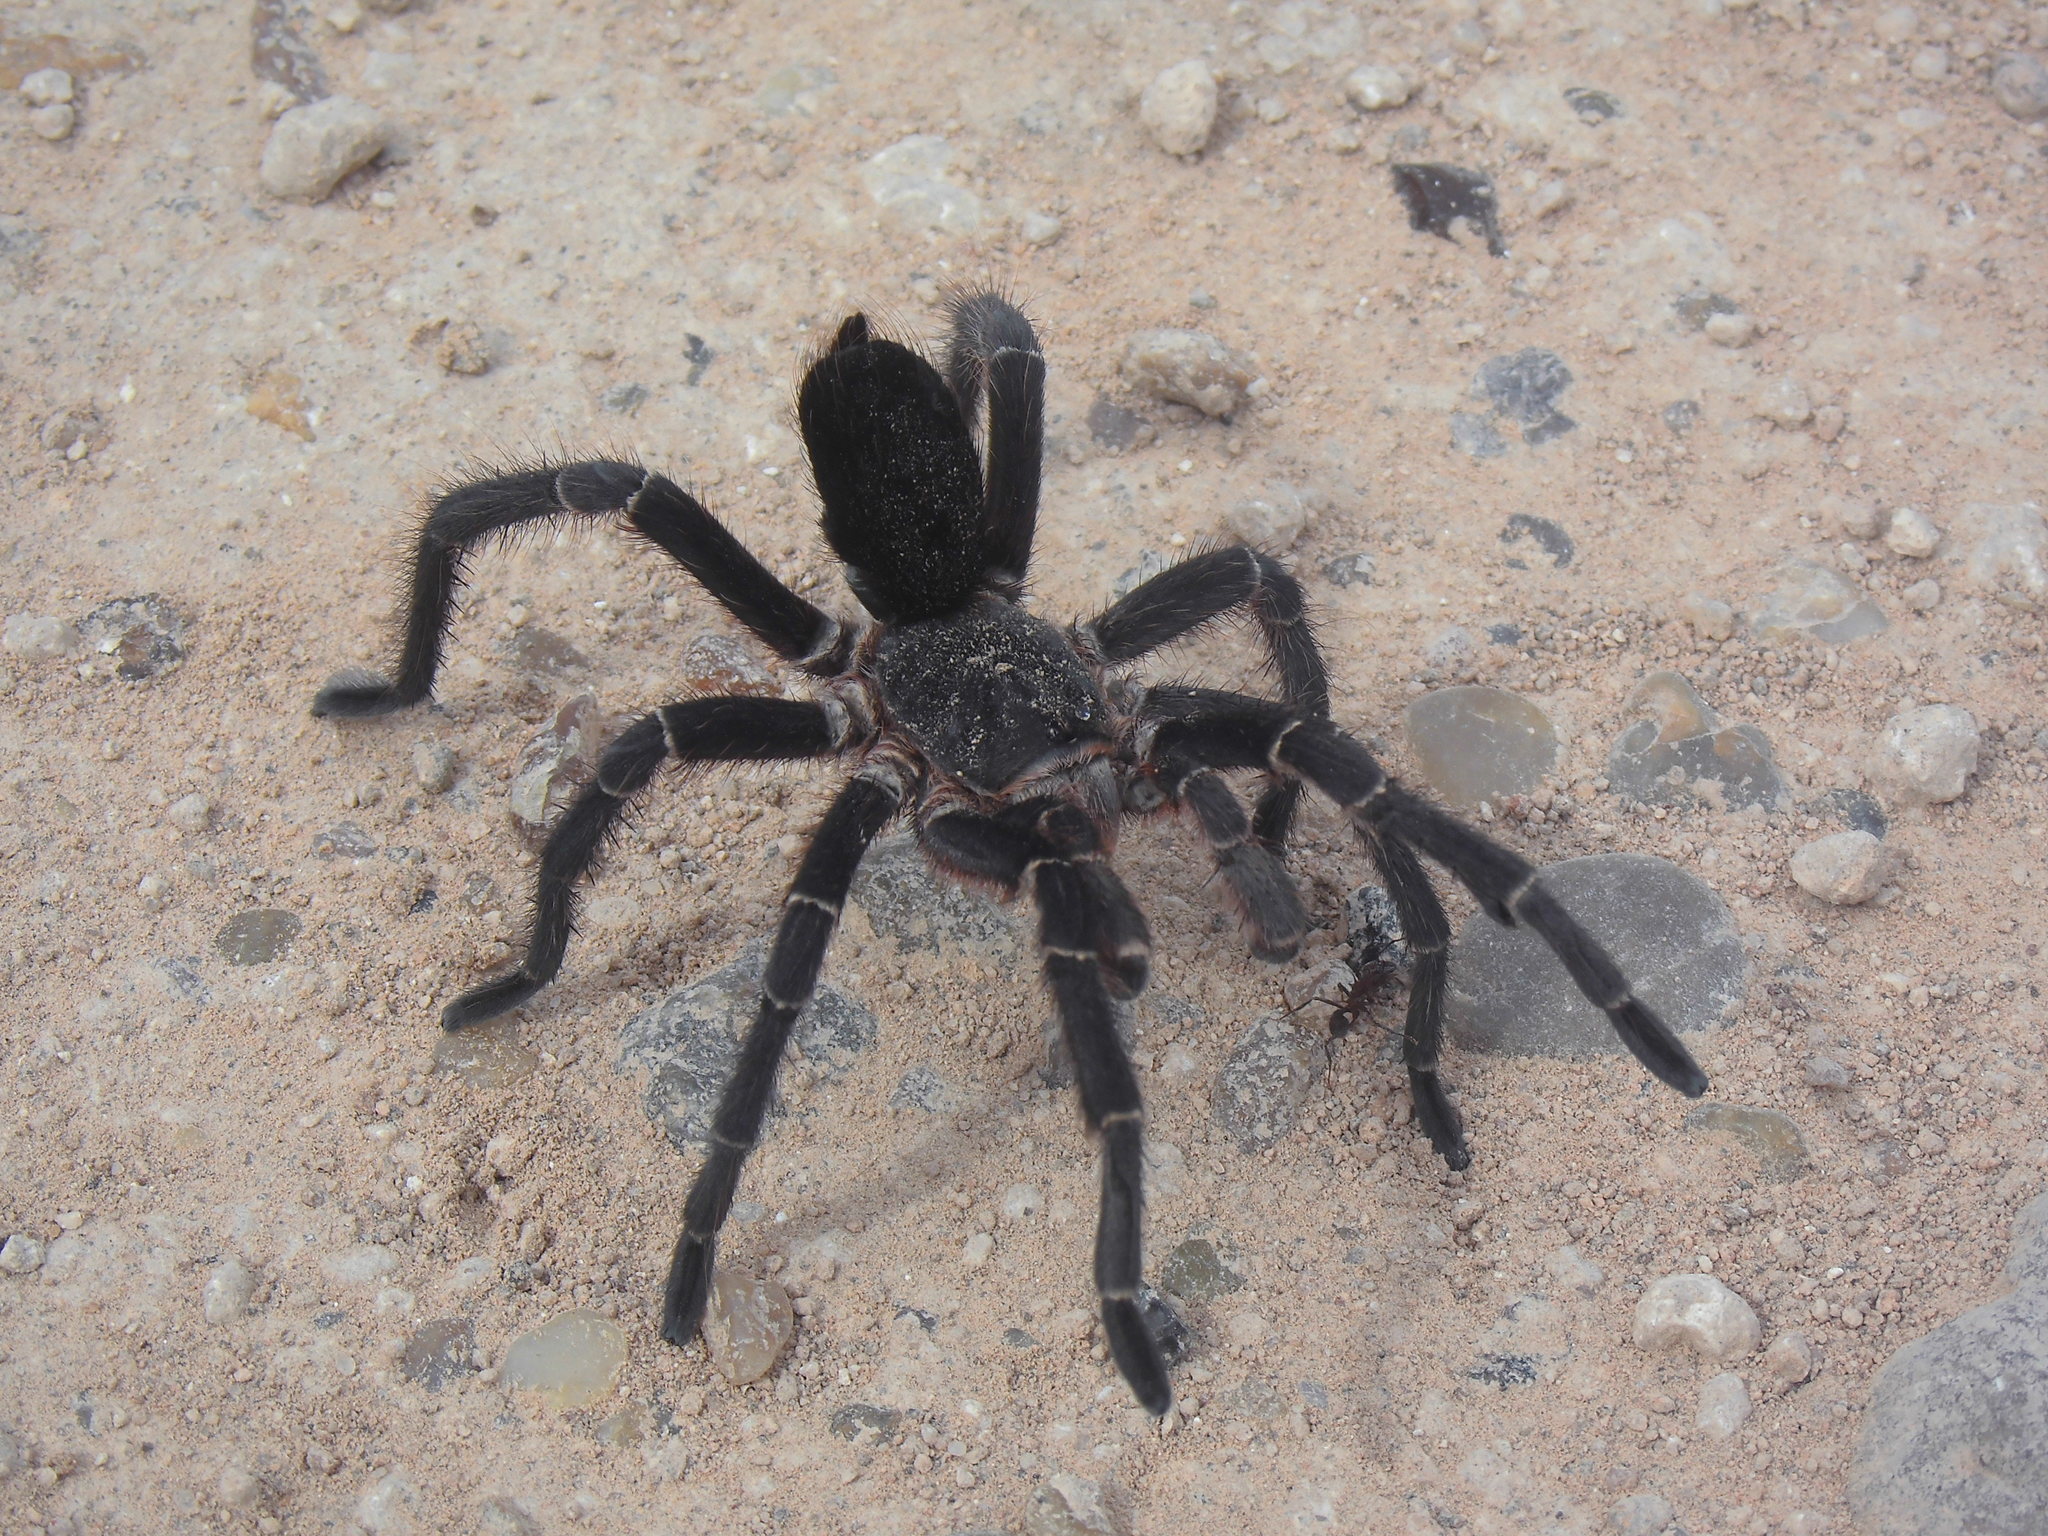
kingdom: Animalia
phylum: Arthropoda
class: Arachnida
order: Araneae
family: Theraphosidae
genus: Eupalaestrus
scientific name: Eupalaestrus weijenberghi
